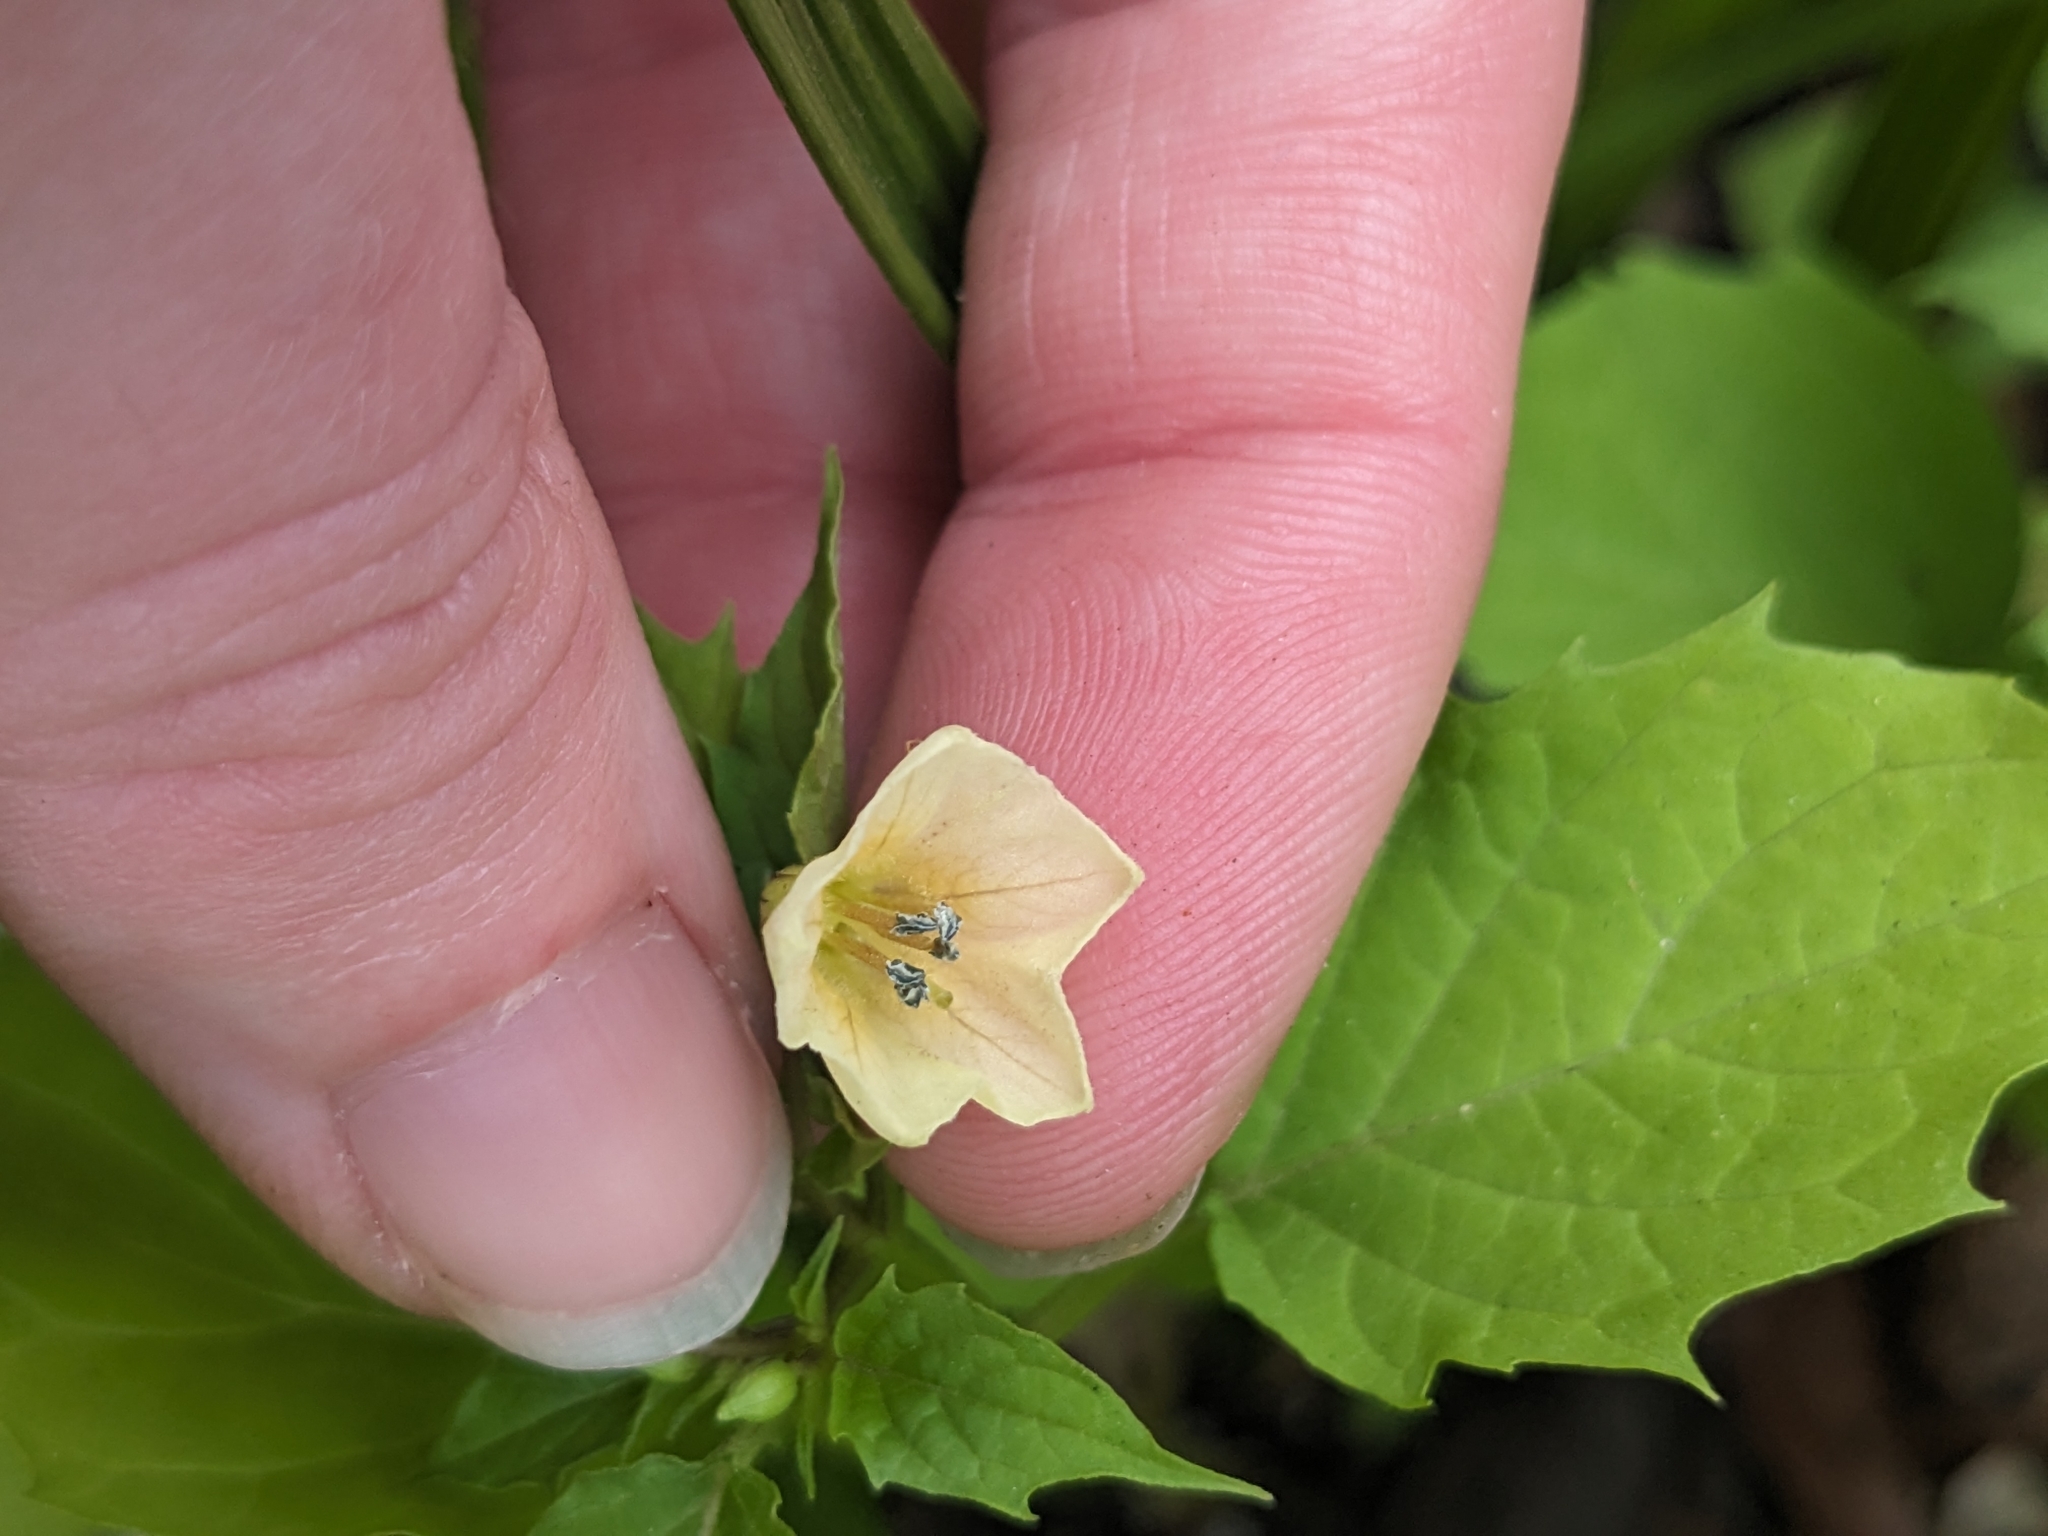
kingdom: Plantae
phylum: Tracheophyta
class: Magnoliopsida
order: Solanales
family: Solanaceae
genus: Physalis
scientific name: Physalis angulata
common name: Angular winter-cherry
